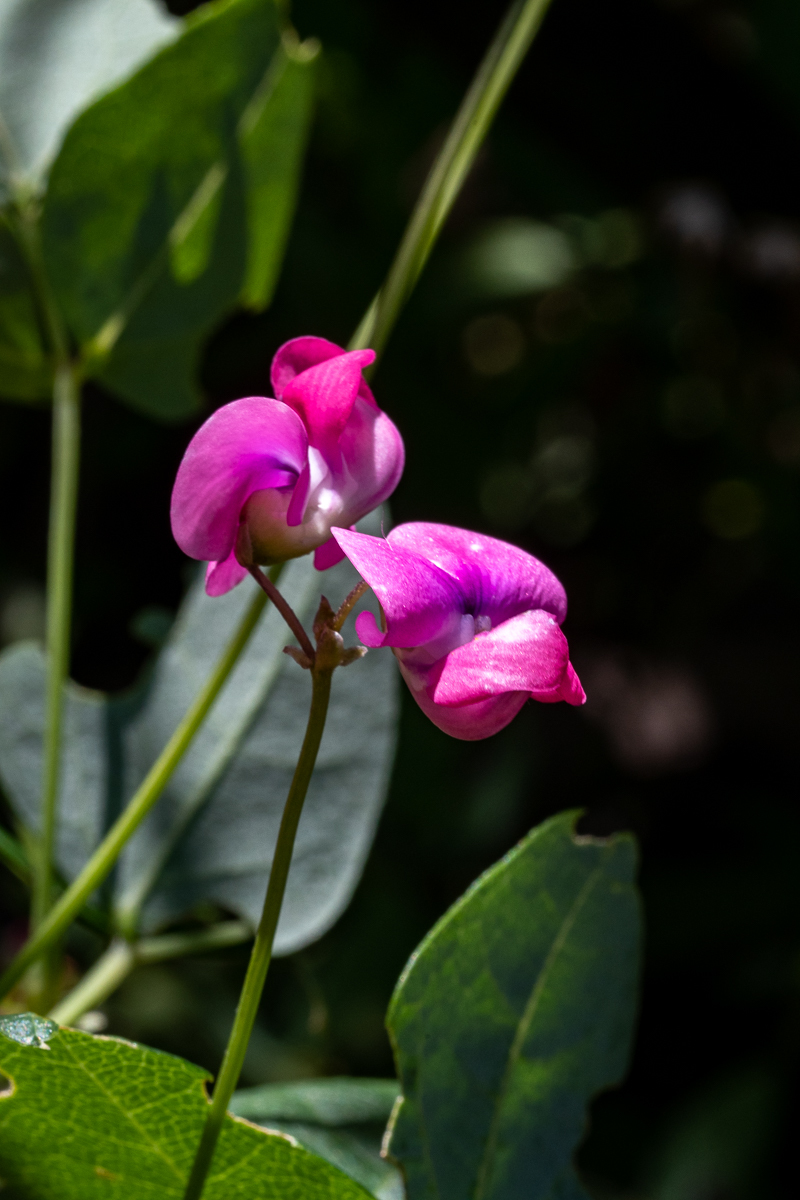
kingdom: Plantae
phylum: Tracheophyta
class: Magnoliopsida
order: Fabales
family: Fabaceae
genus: Dipogon
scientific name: Dipogon lignosus
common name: Okie bean
